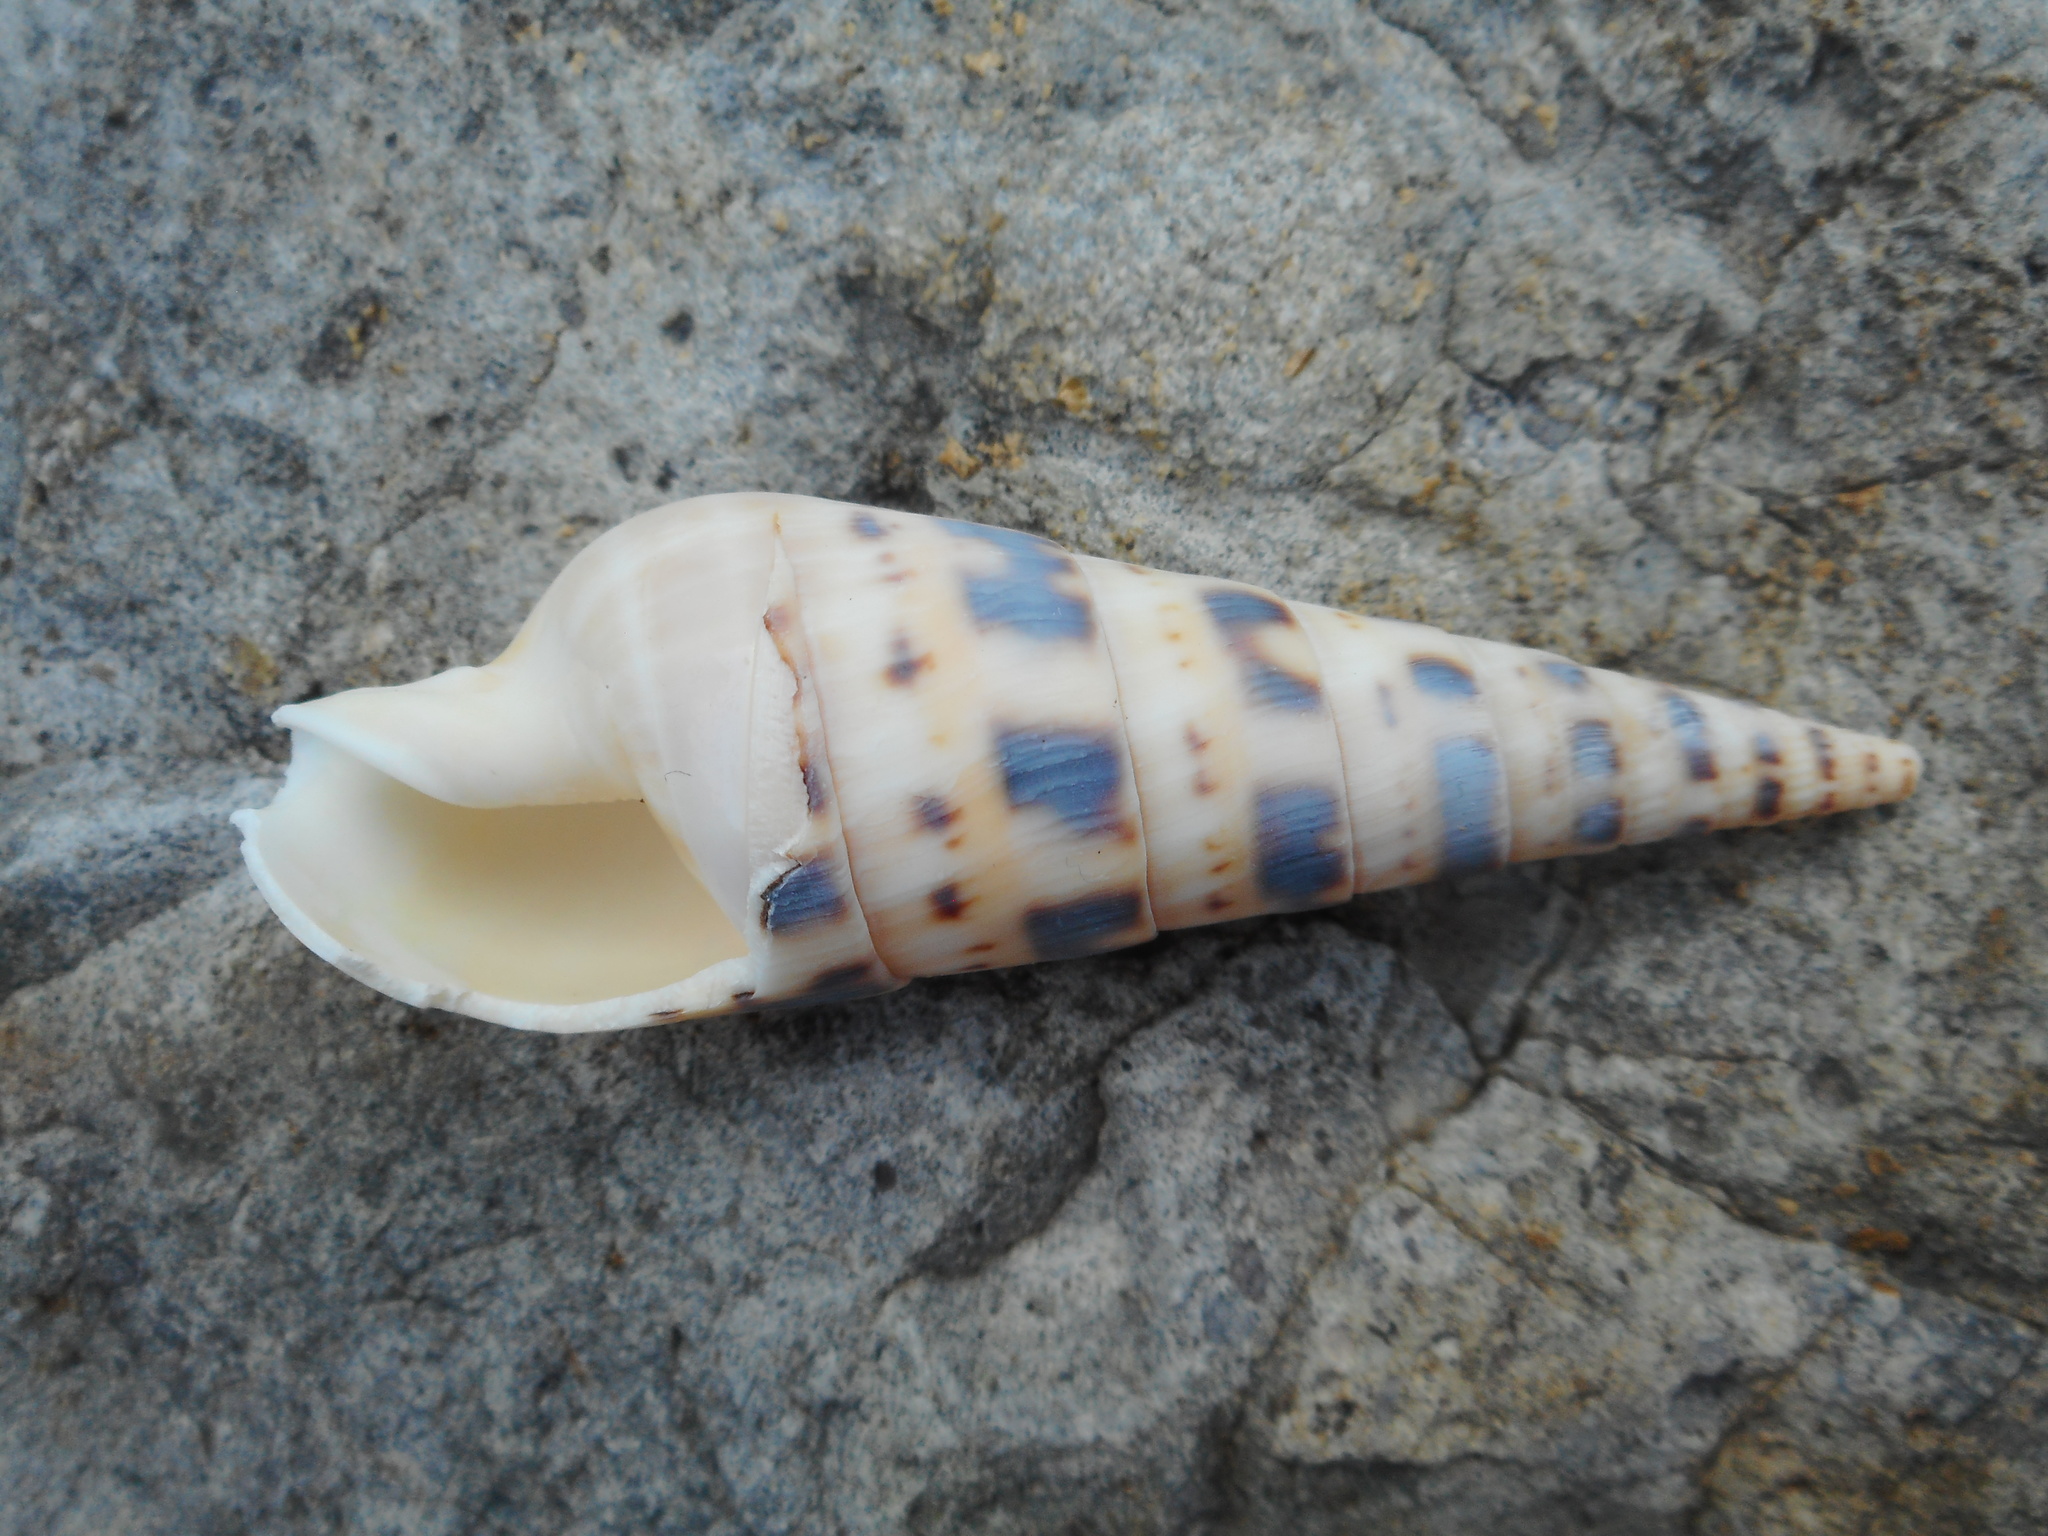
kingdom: Animalia
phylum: Mollusca
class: Gastropoda
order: Neogastropoda
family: Terebridae
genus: Oxymeris
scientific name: Oxymeris maculata
